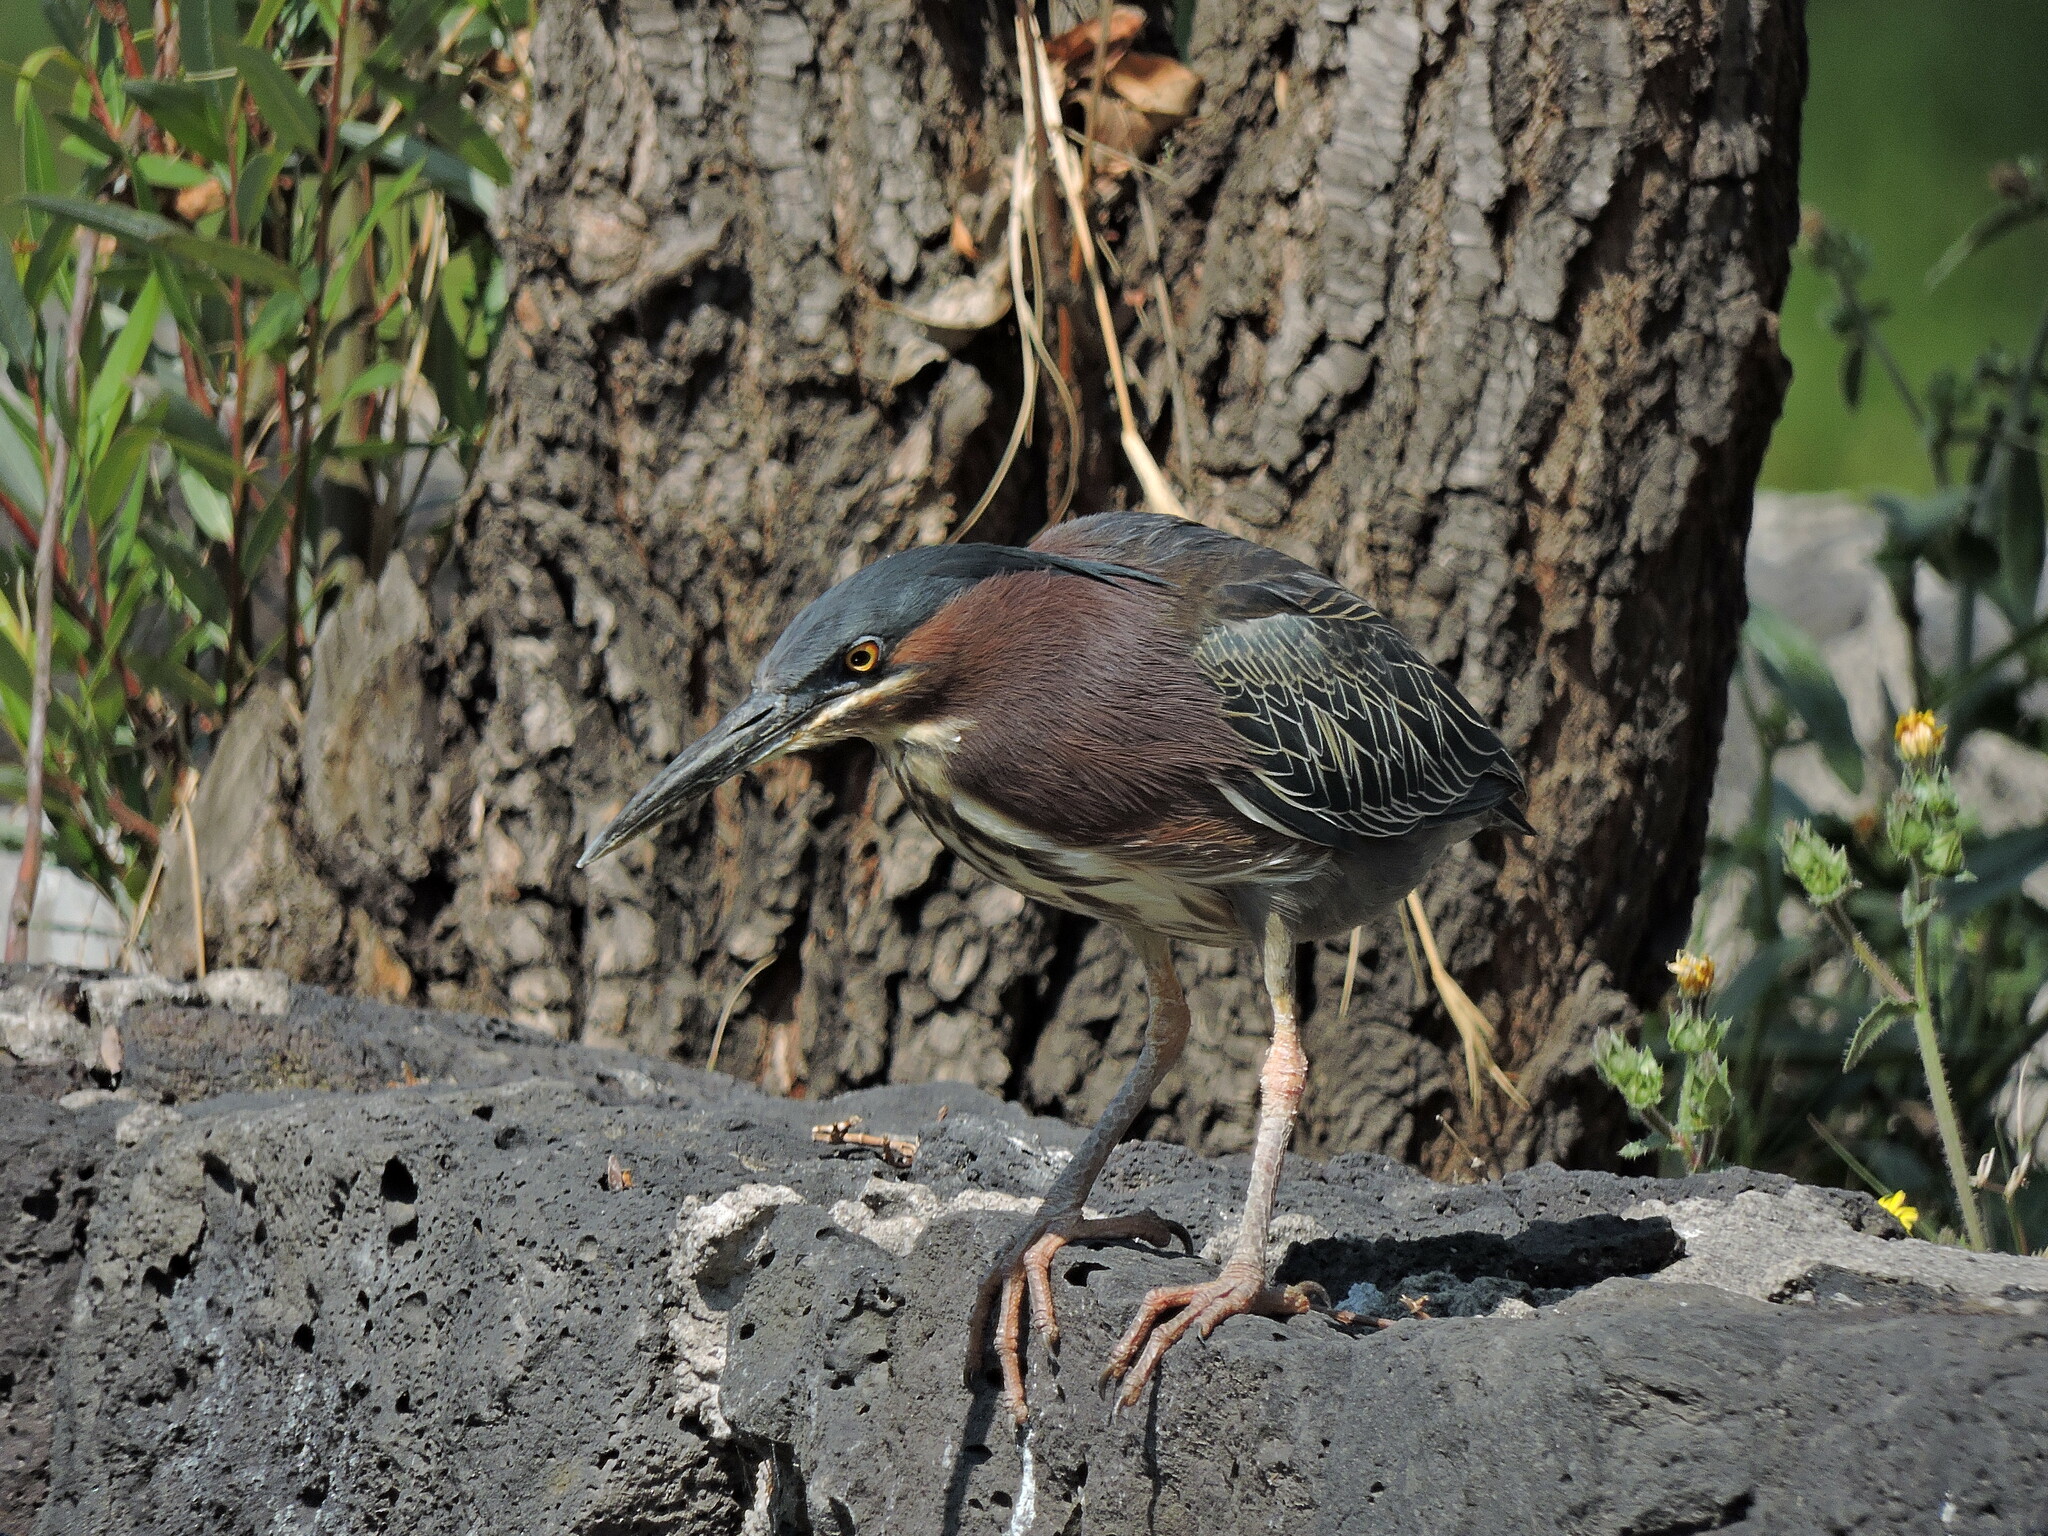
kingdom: Animalia
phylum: Chordata
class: Aves
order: Pelecaniformes
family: Ardeidae
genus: Butorides
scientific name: Butorides virescens
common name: Green heron
